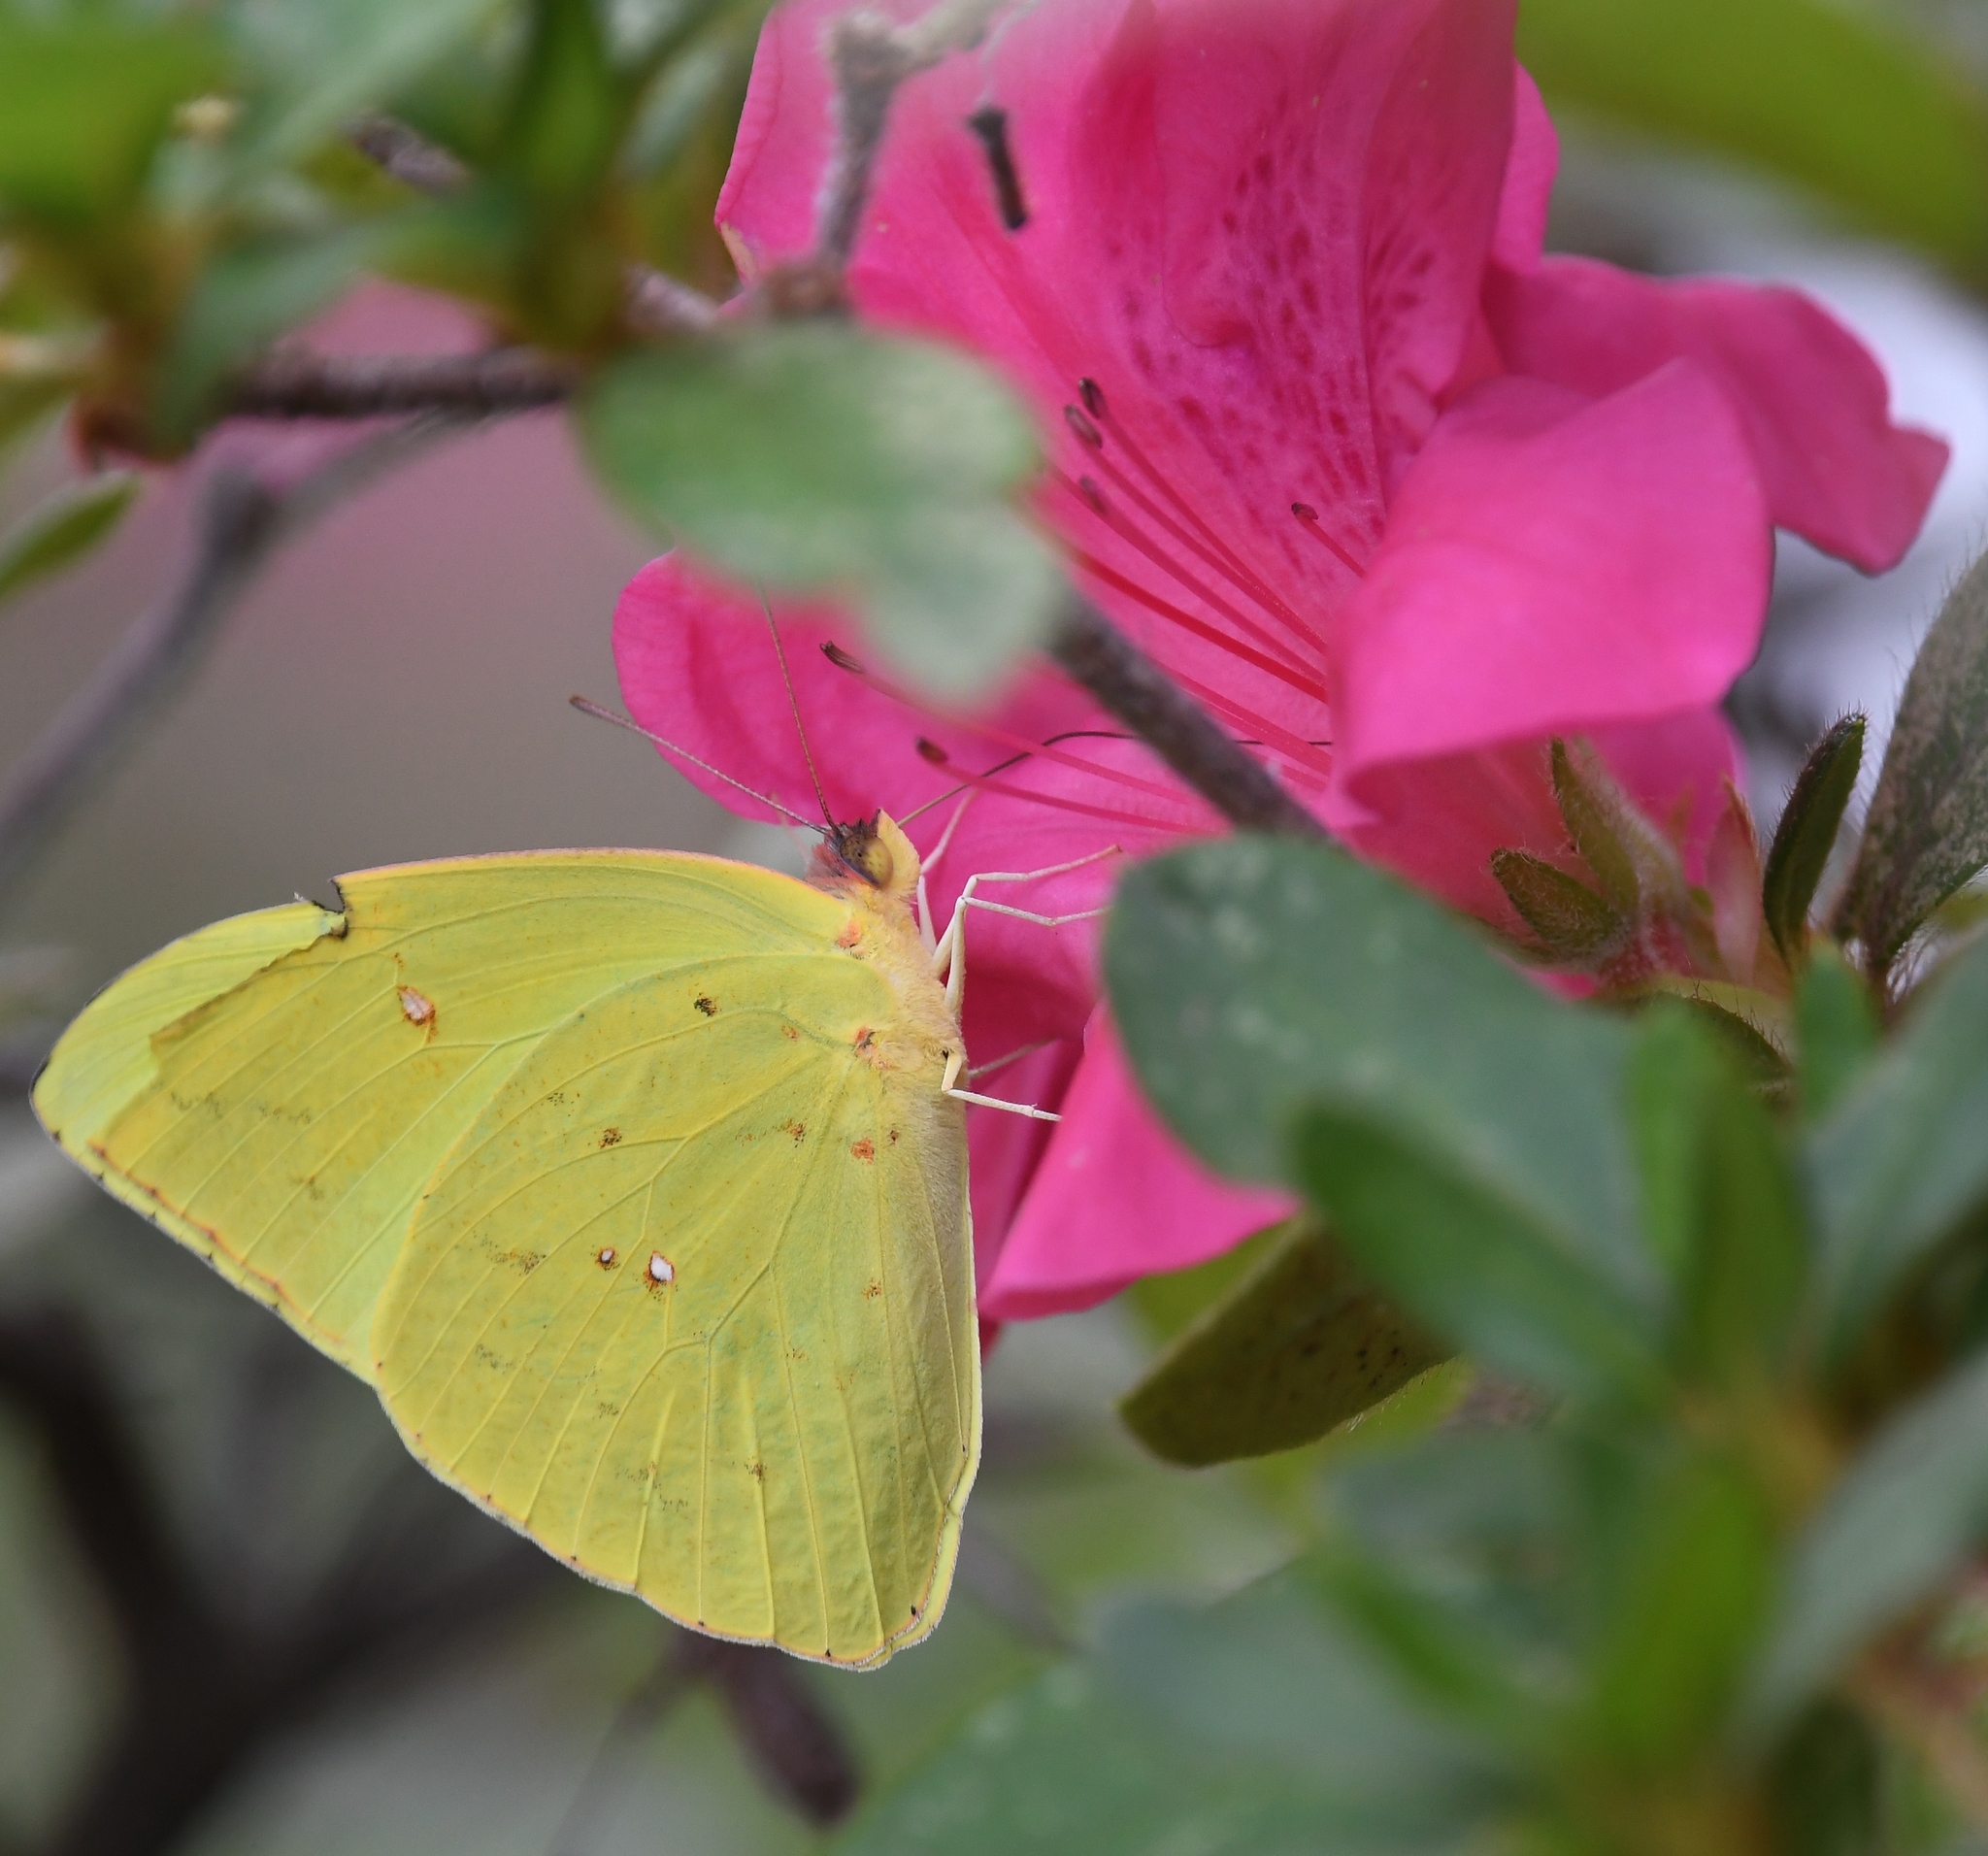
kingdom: Animalia
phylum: Arthropoda
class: Insecta
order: Lepidoptera
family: Pieridae
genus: Phoebis
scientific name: Phoebis sennae
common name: Cloudless sulphur
